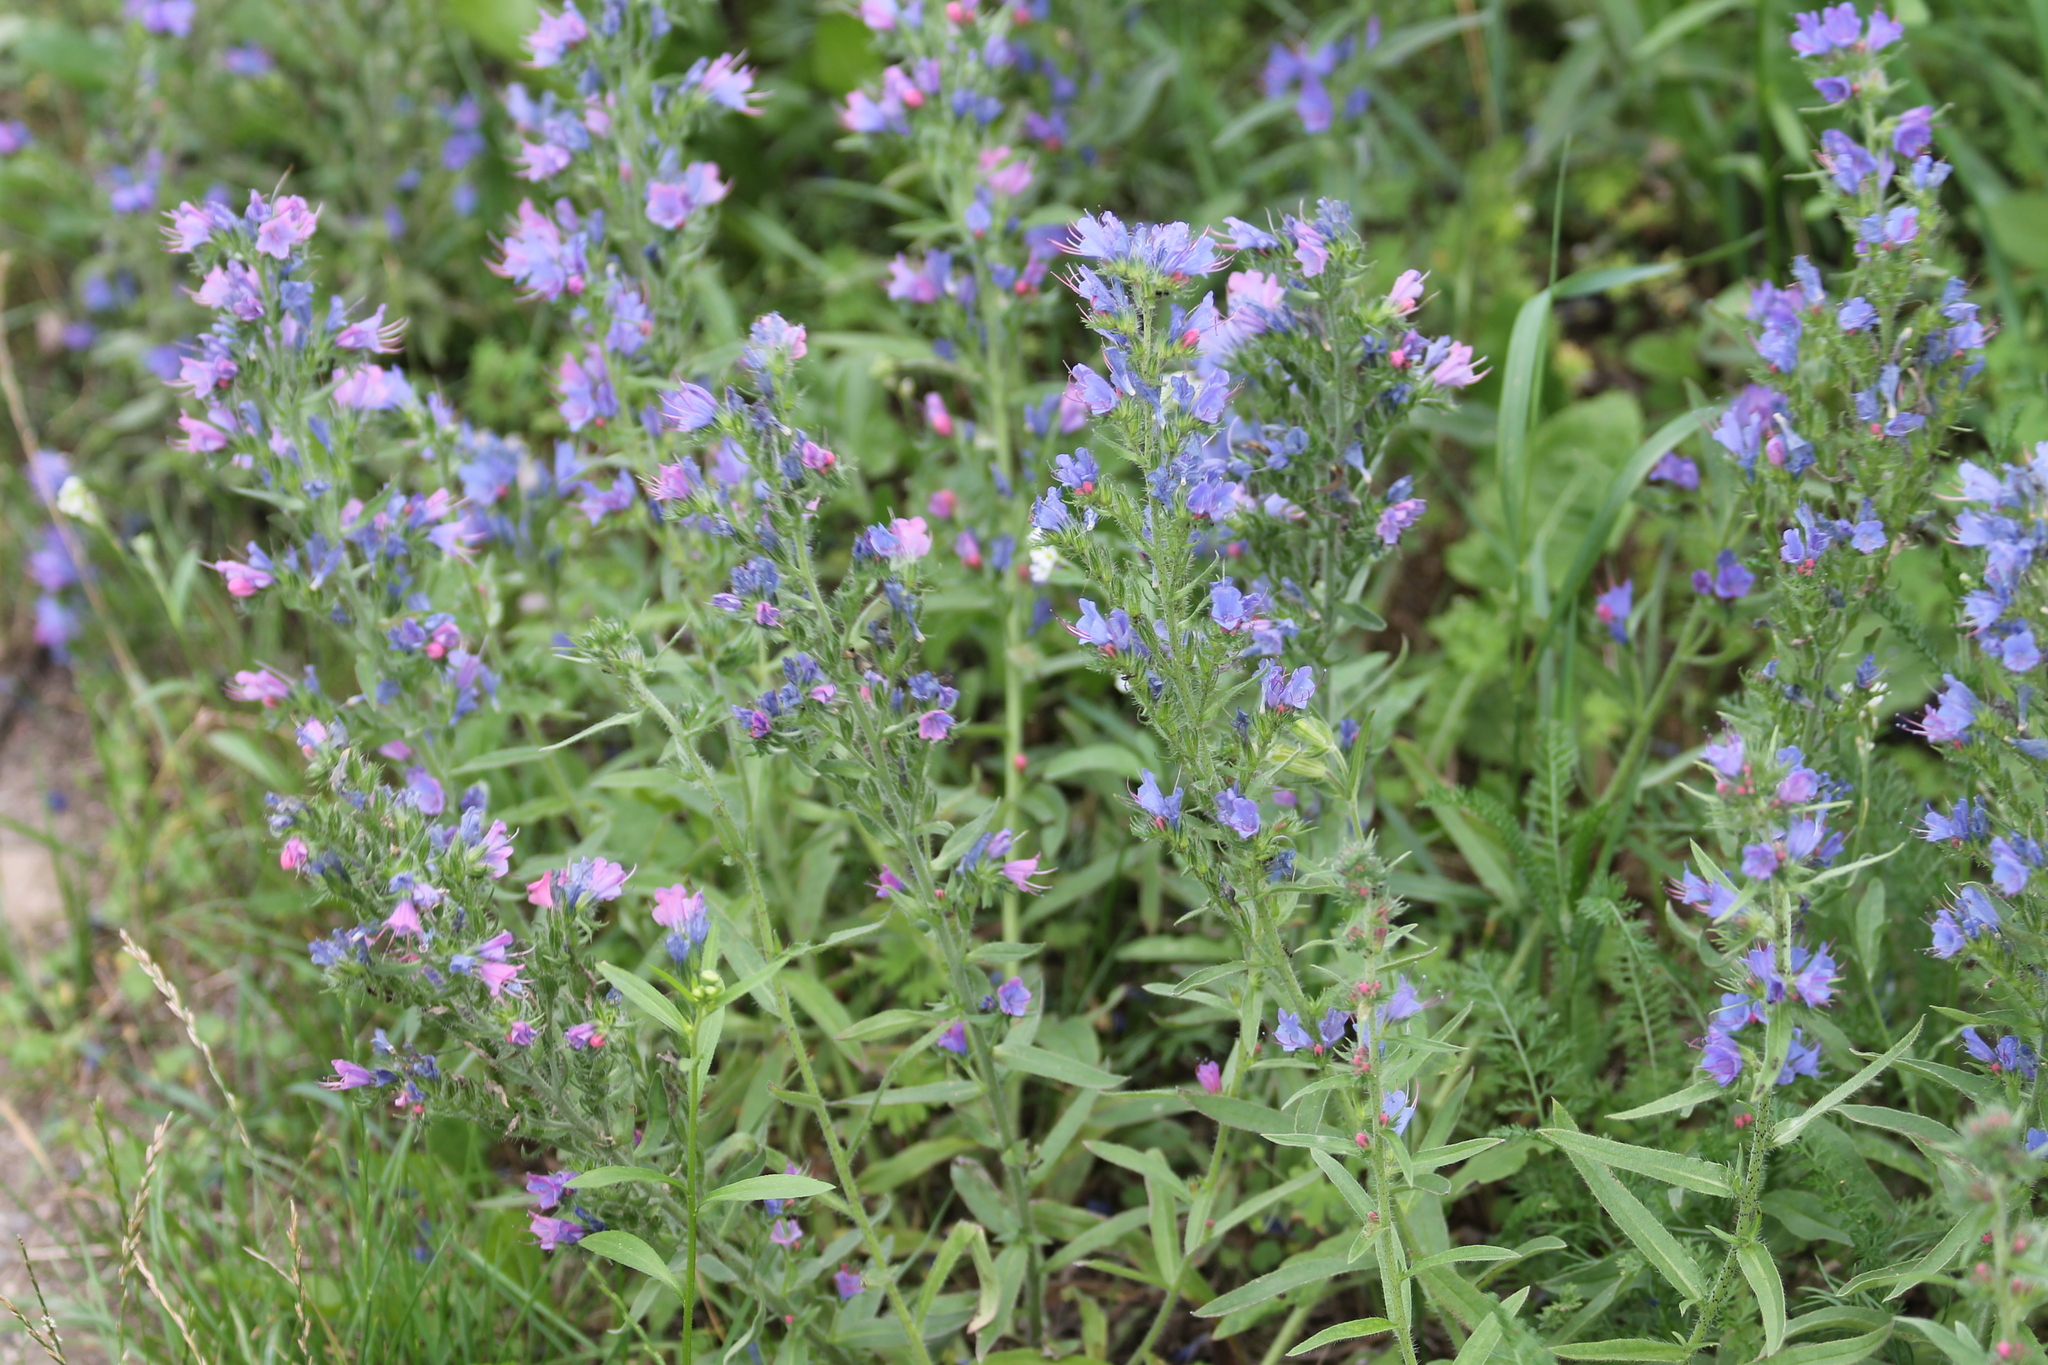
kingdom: Plantae
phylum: Tracheophyta
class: Magnoliopsida
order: Boraginales
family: Boraginaceae
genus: Echium
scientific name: Echium vulgare
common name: Common viper's bugloss
